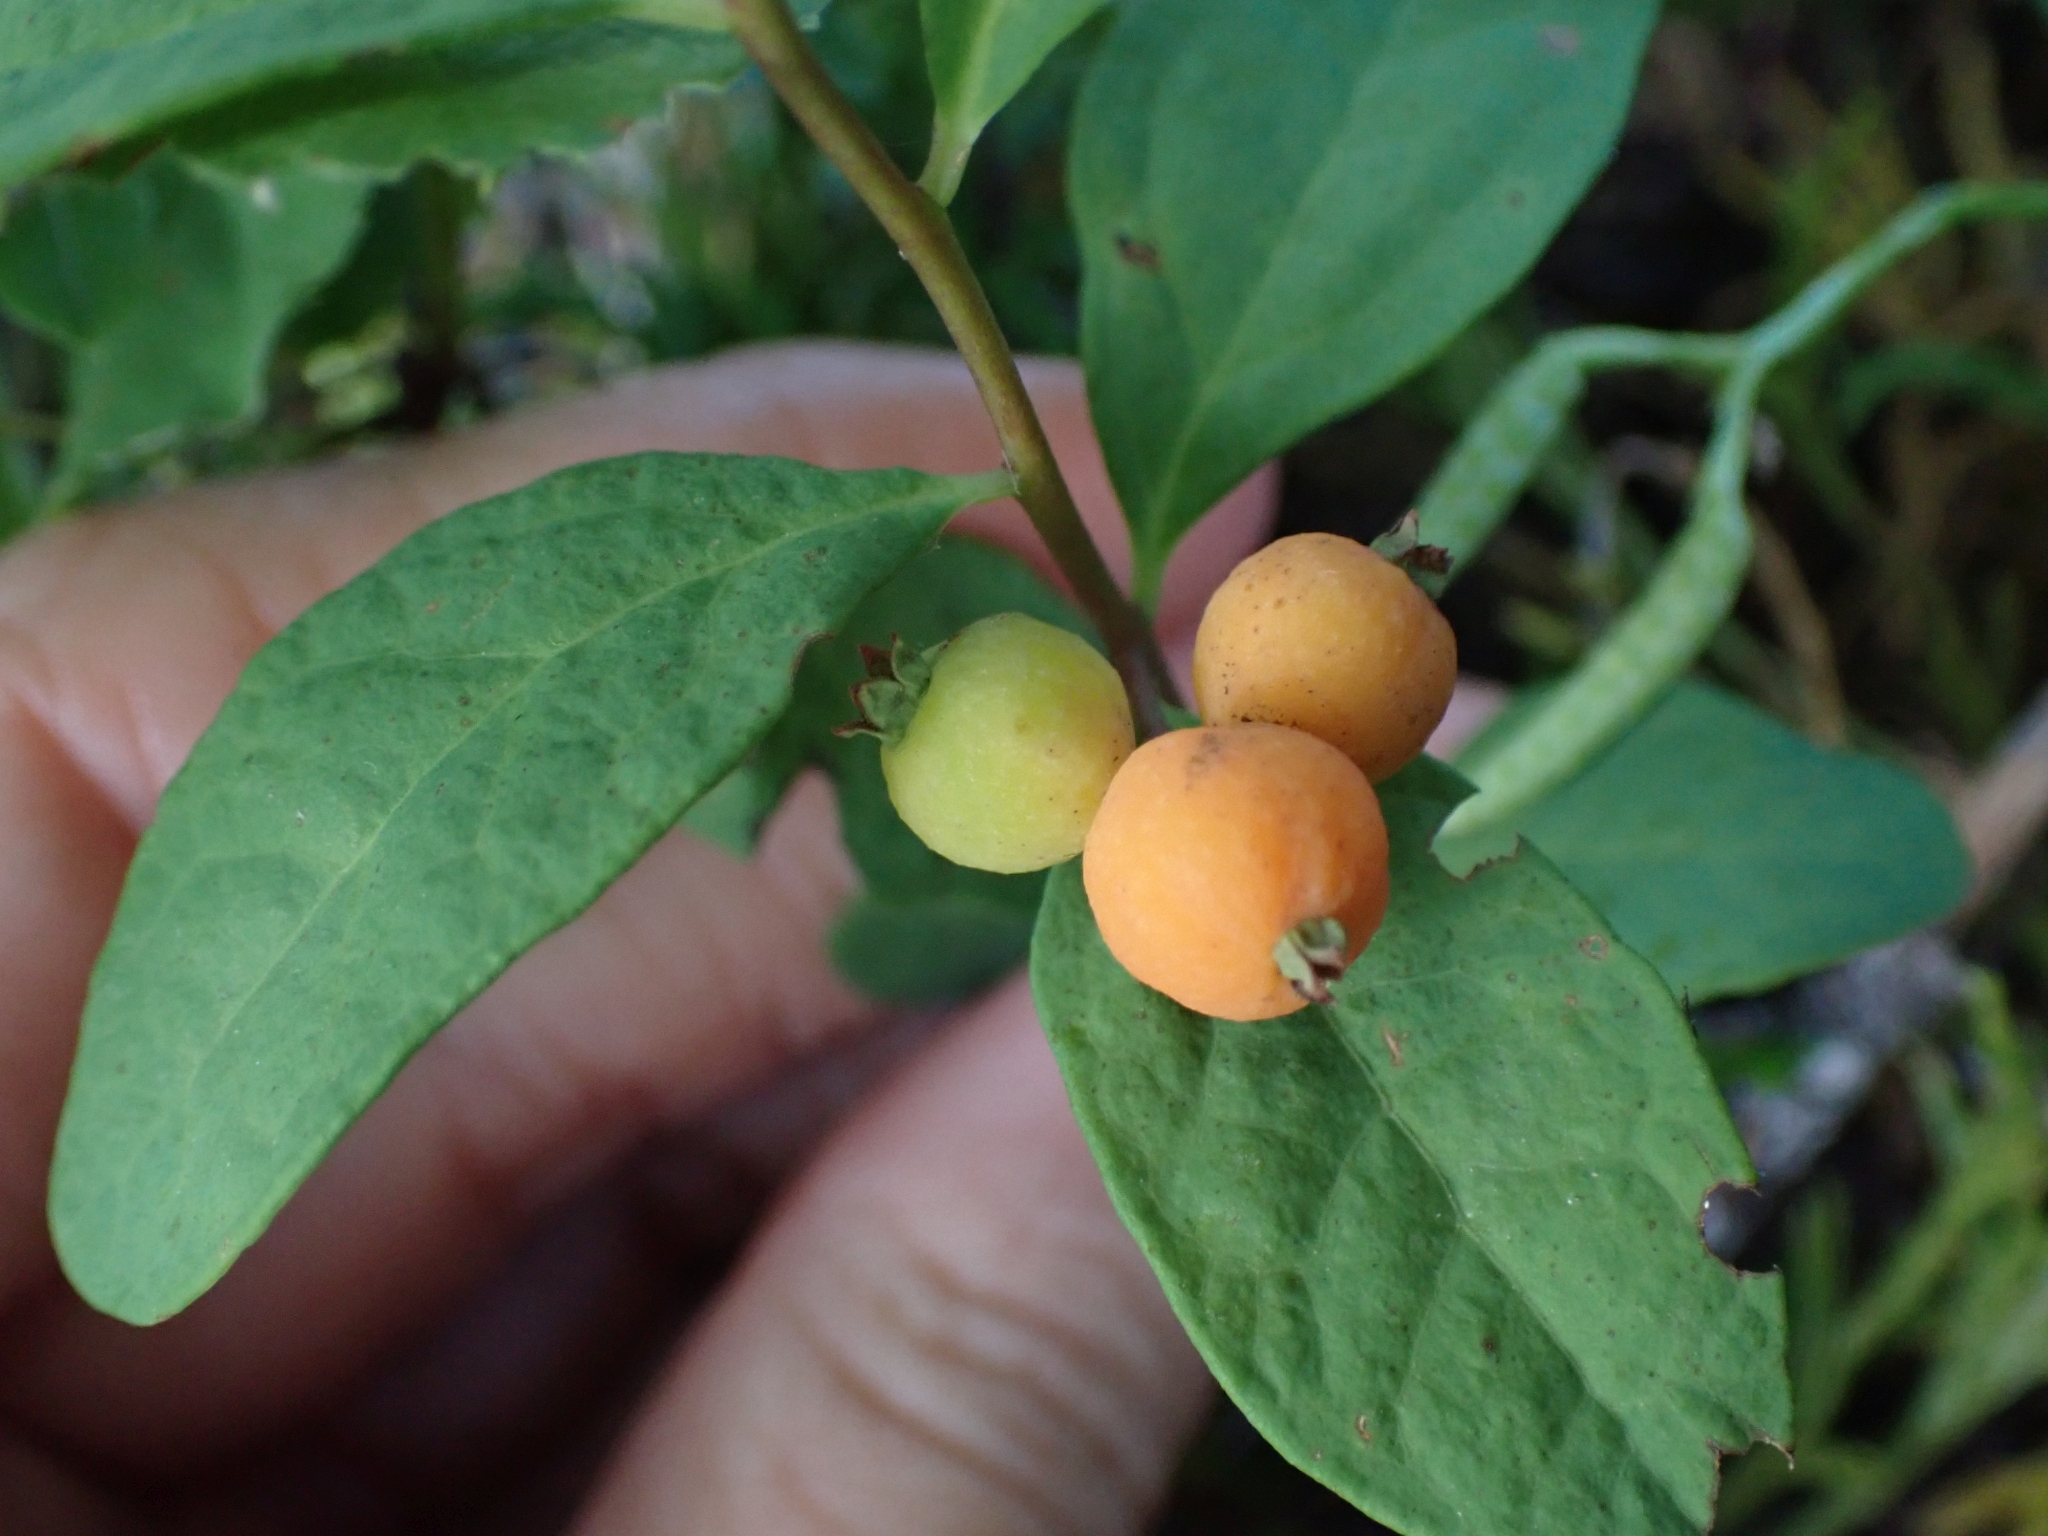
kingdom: Plantae
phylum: Tracheophyta
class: Magnoliopsida
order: Santalales
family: Comandraceae
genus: Geocaulon
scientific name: Geocaulon lividum
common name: Earthberry
